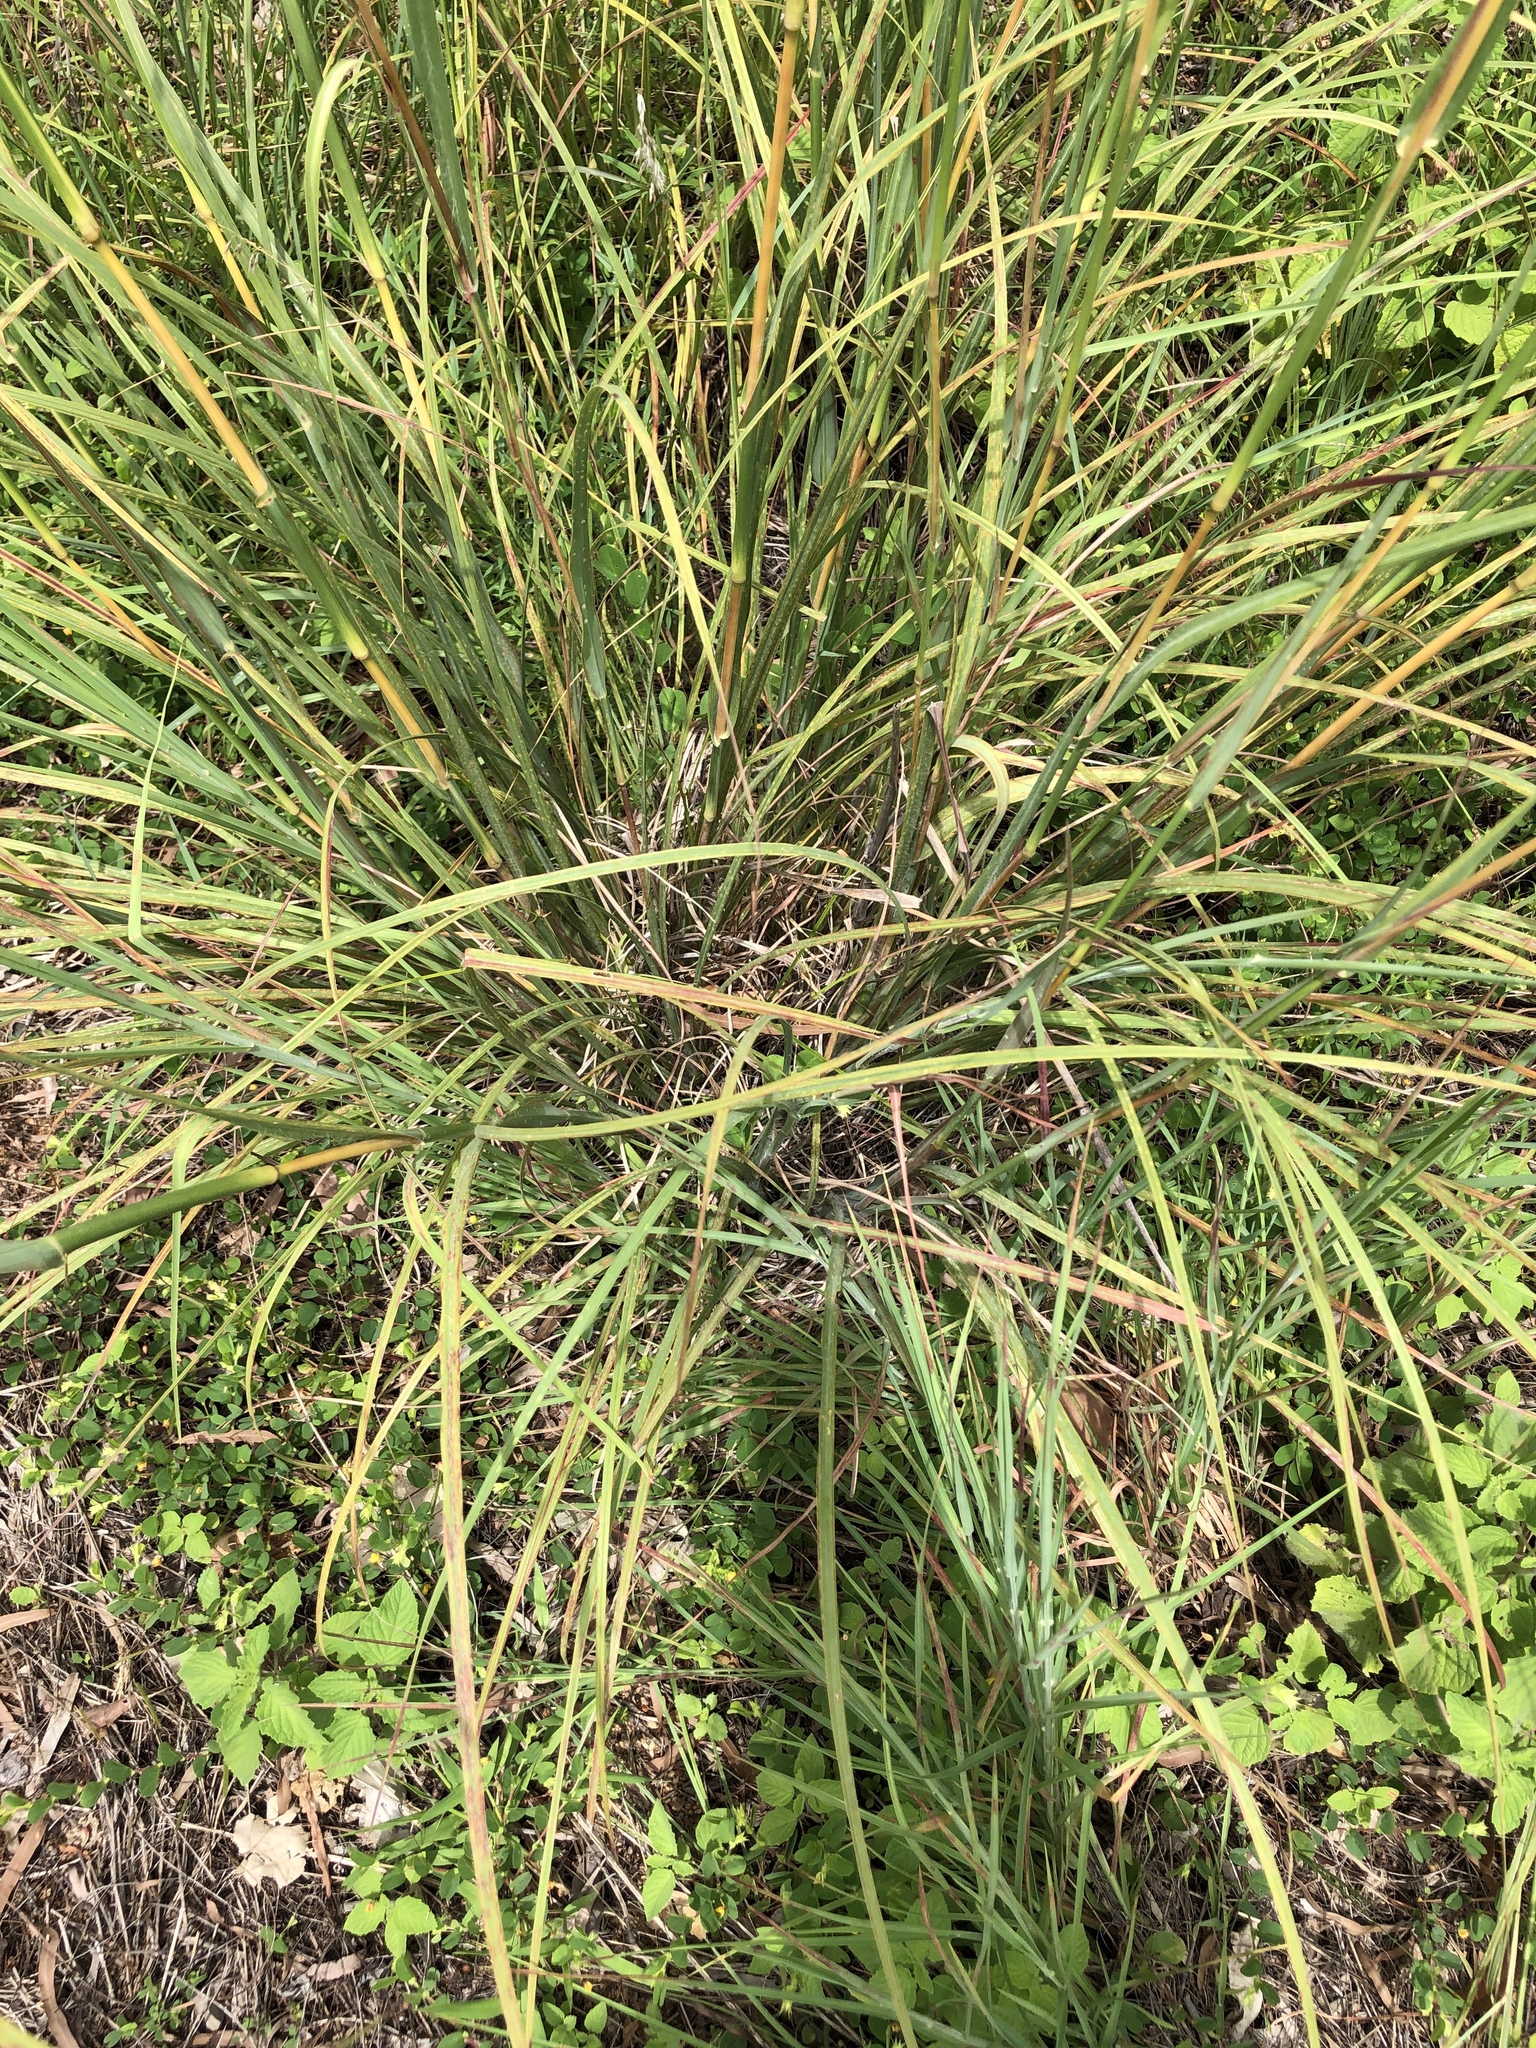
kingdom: Plantae
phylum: Tracheophyta
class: Liliopsida
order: Poales
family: Poaceae
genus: Heteropogon
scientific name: Heteropogon triticeus
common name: Sugar grass
